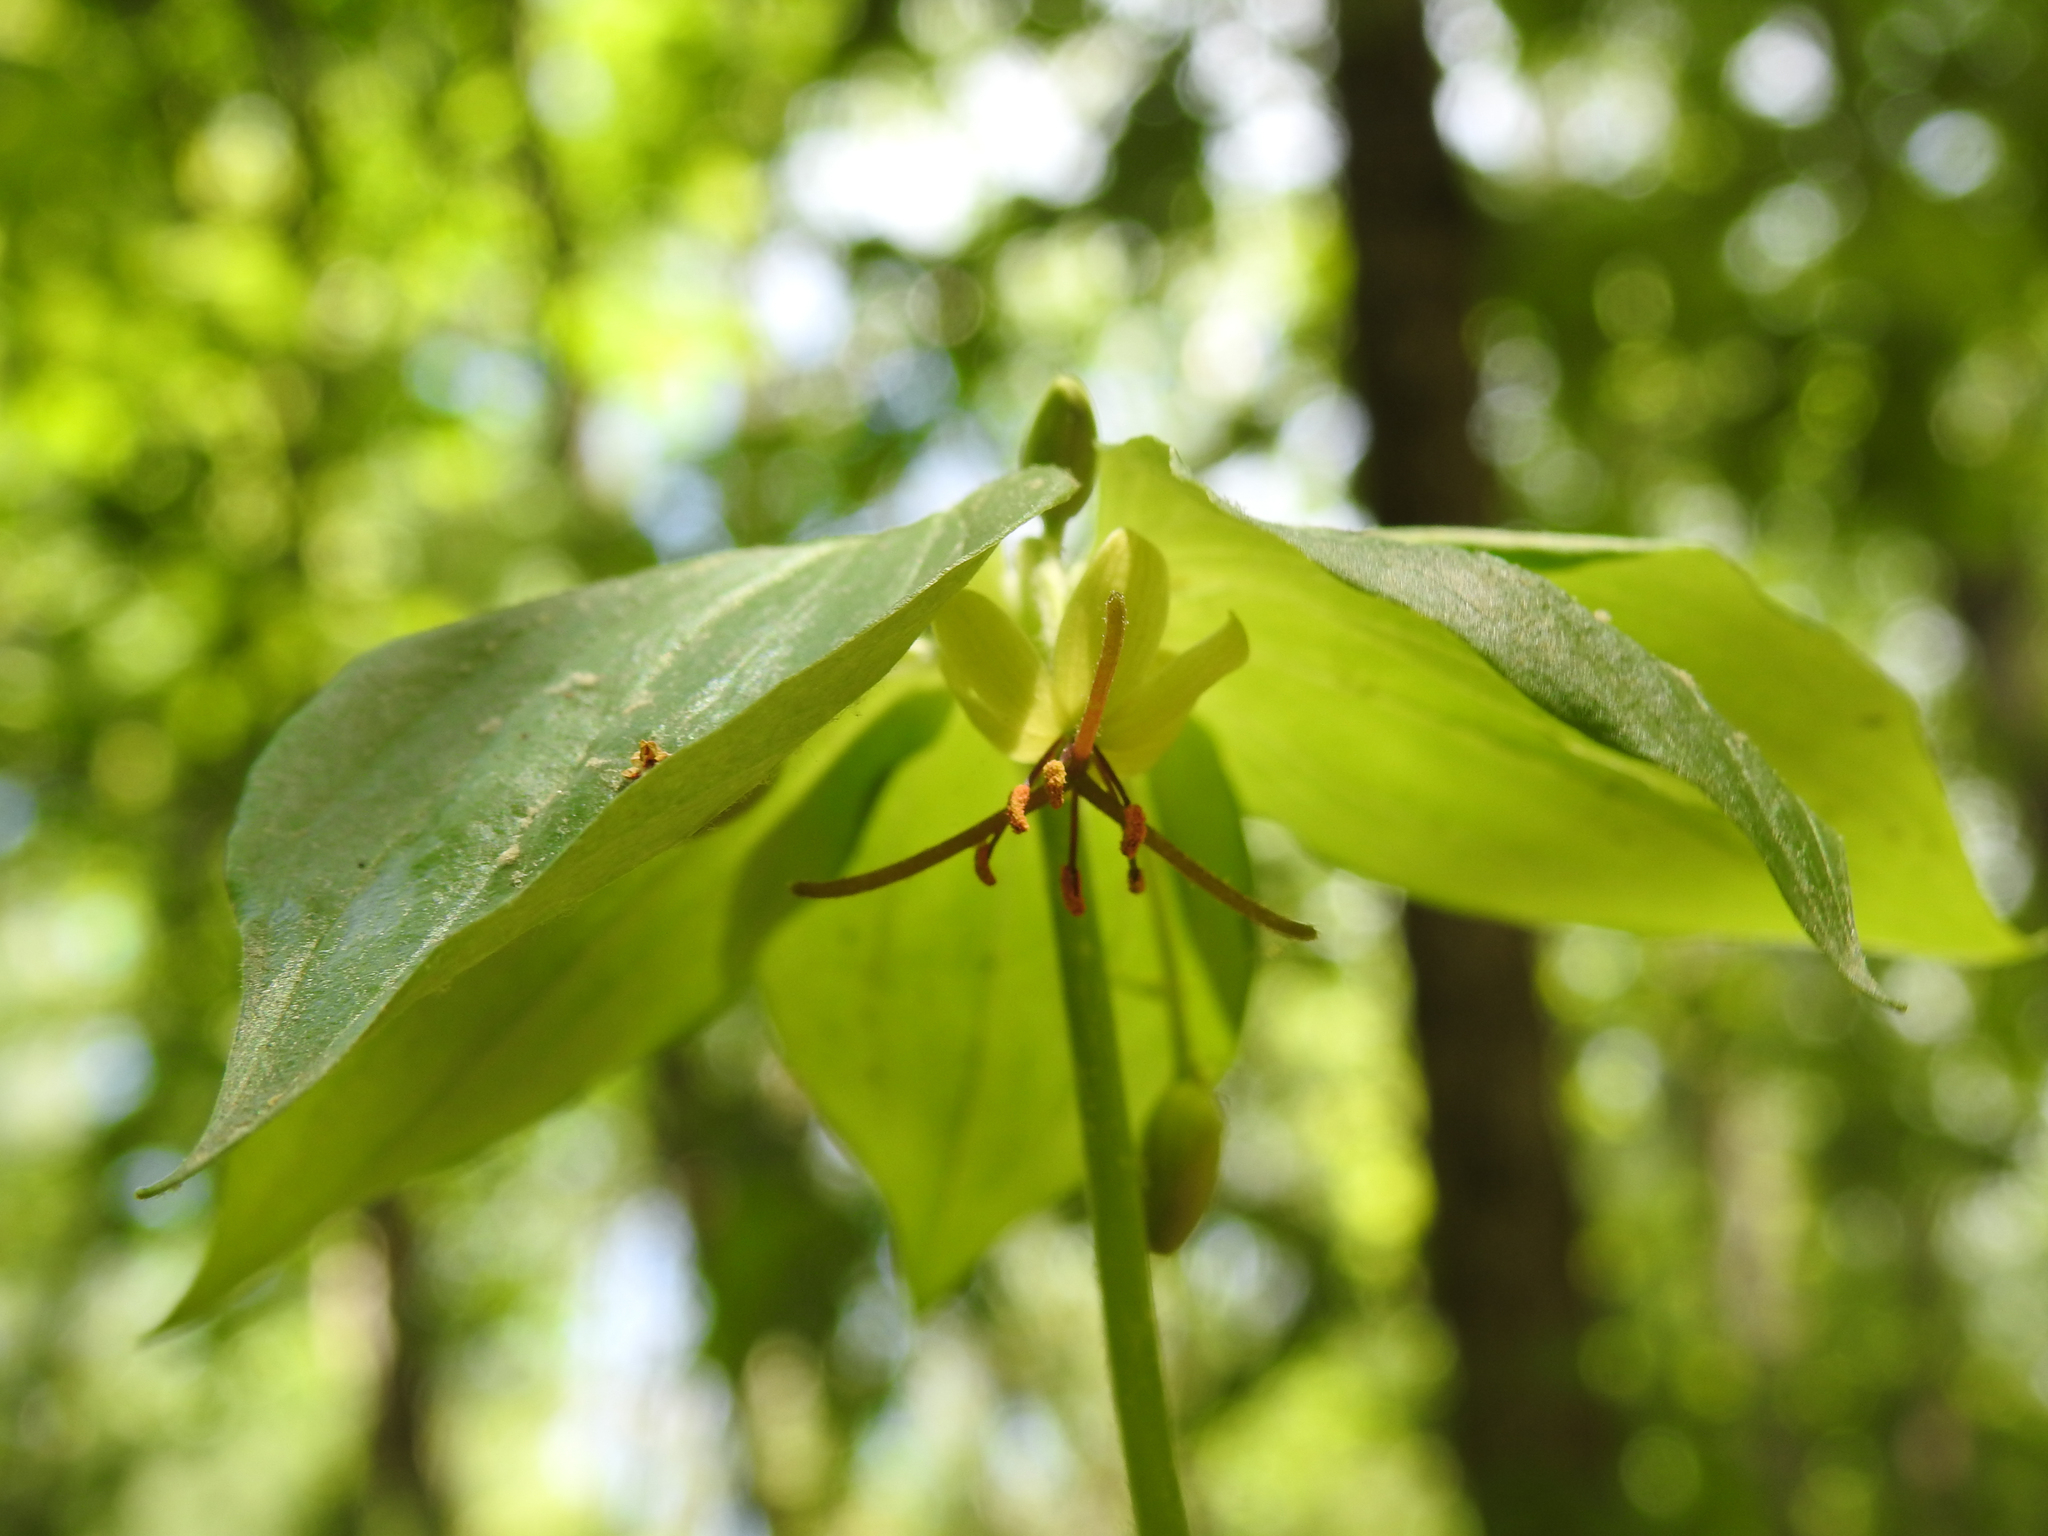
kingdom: Plantae
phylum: Tracheophyta
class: Liliopsida
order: Liliales
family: Liliaceae
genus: Medeola
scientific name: Medeola virginiana
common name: Indian cucumber-root
